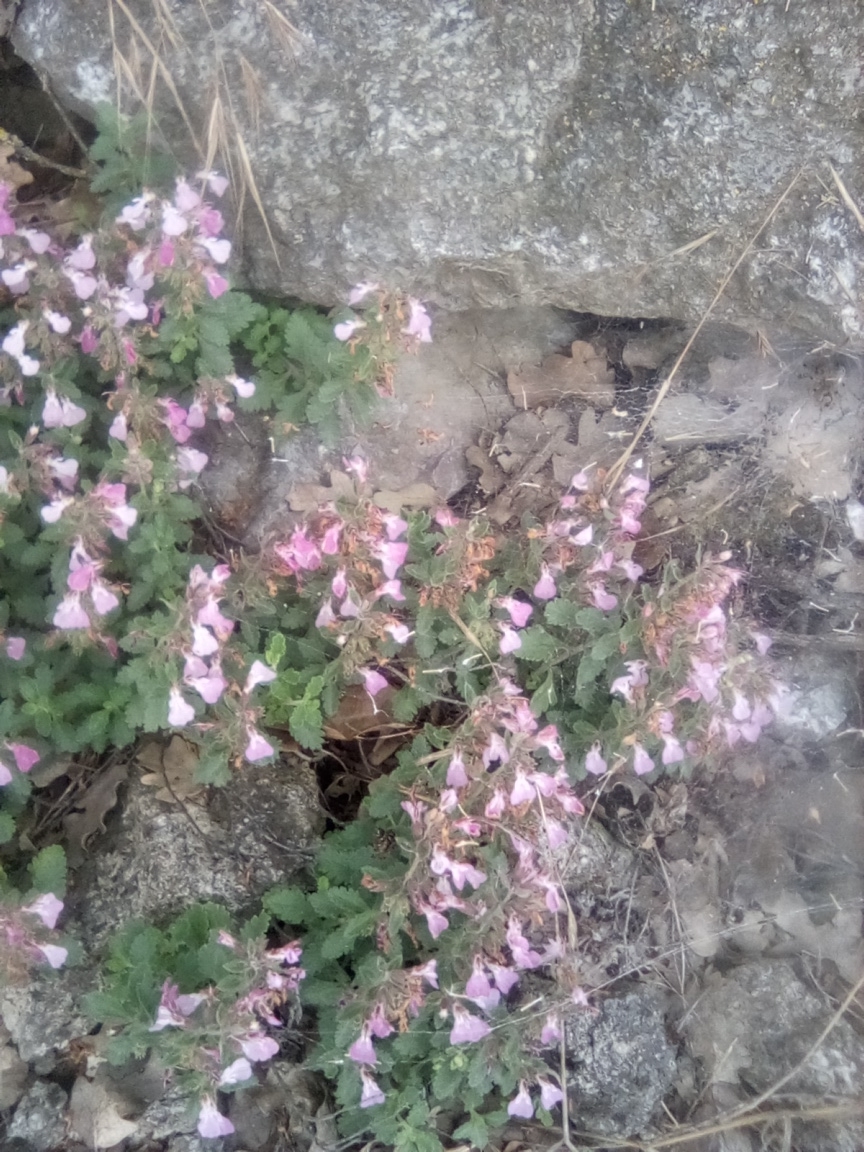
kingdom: Plantae
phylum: Tracheophyta
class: Magnoliopsida
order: Lamiales
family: Lamiaceae
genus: Teucrium
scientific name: Teucrium chamaedrys
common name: Wall germander
